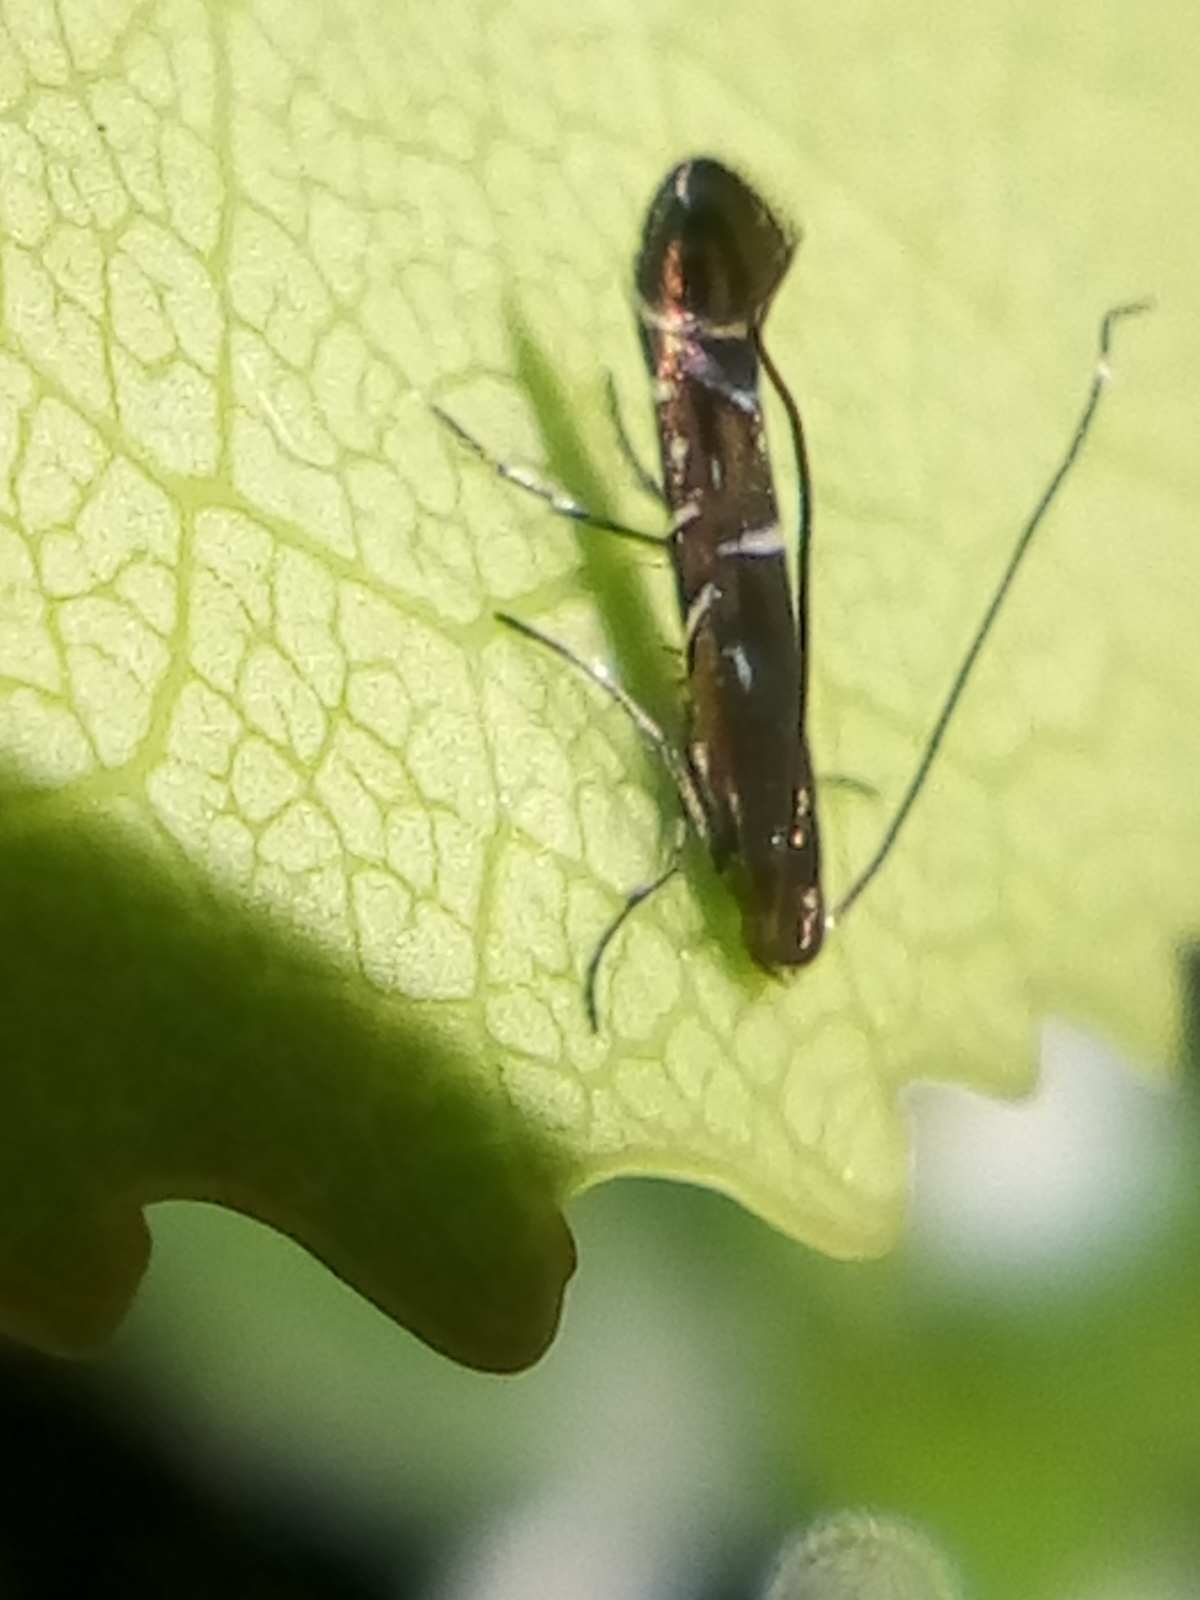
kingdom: Animalia
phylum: Arthropoda
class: Insecta
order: Lepidoptera
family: Gracillariidae
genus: Polysoma
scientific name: Polysoma eumetalla
